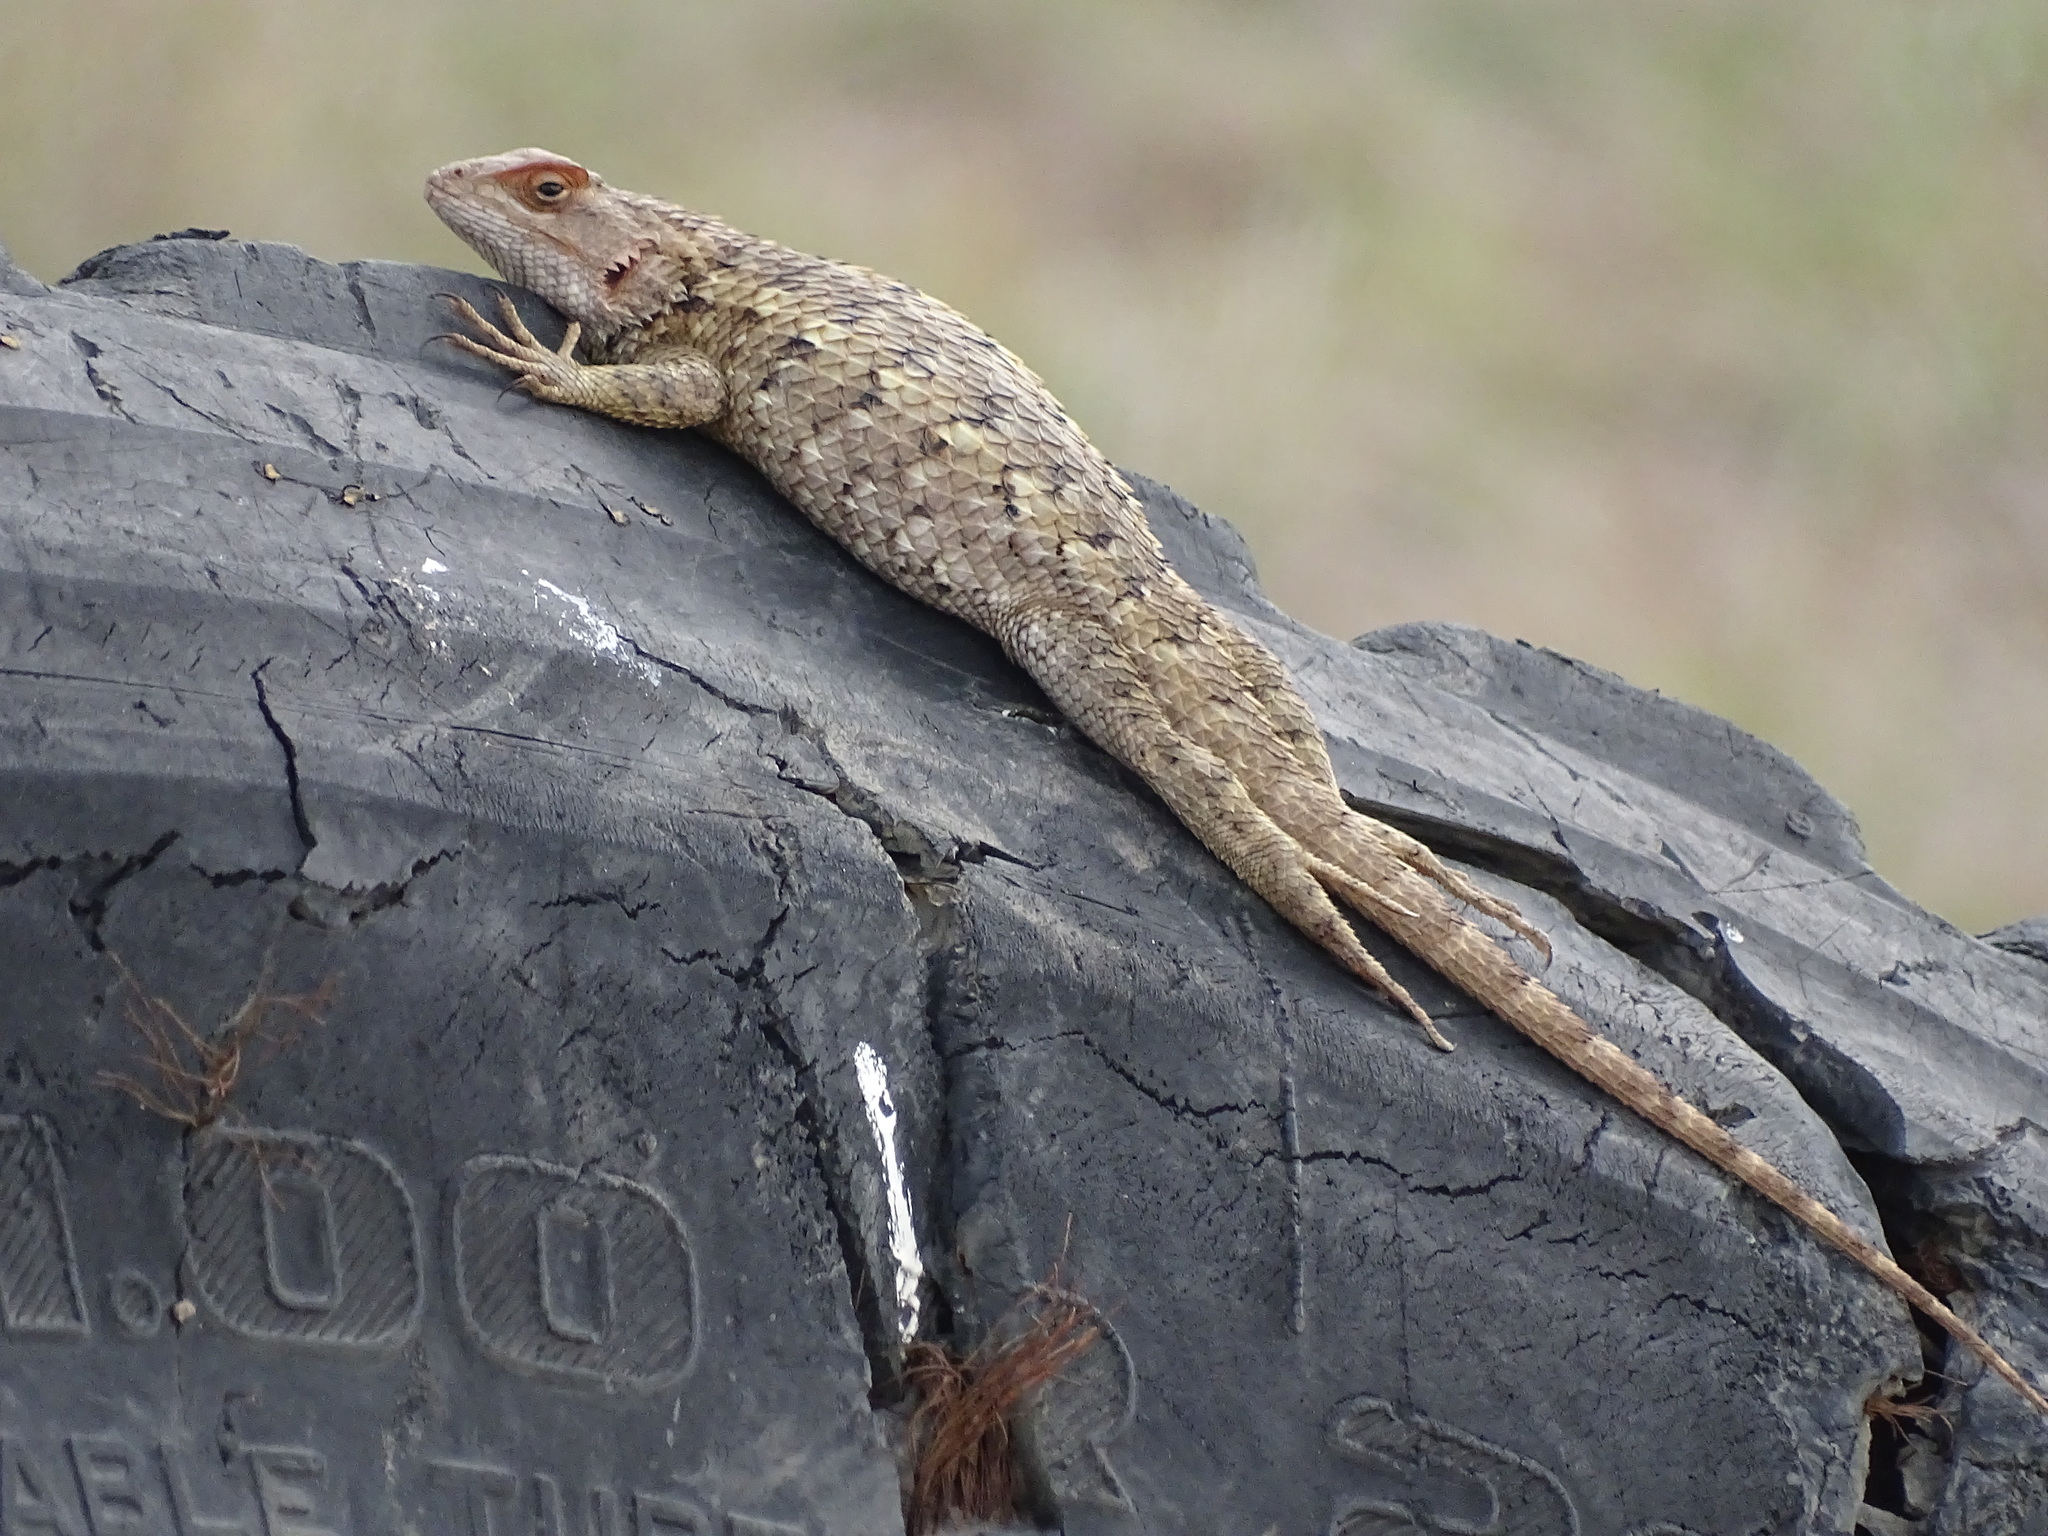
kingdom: Animalia
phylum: Chordata
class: Squamata
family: Phrynosomatidae
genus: Sceloporus
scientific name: Sceloporus spinosus
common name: Blue-spotted spiny lizard [caeruleopunctatus]
